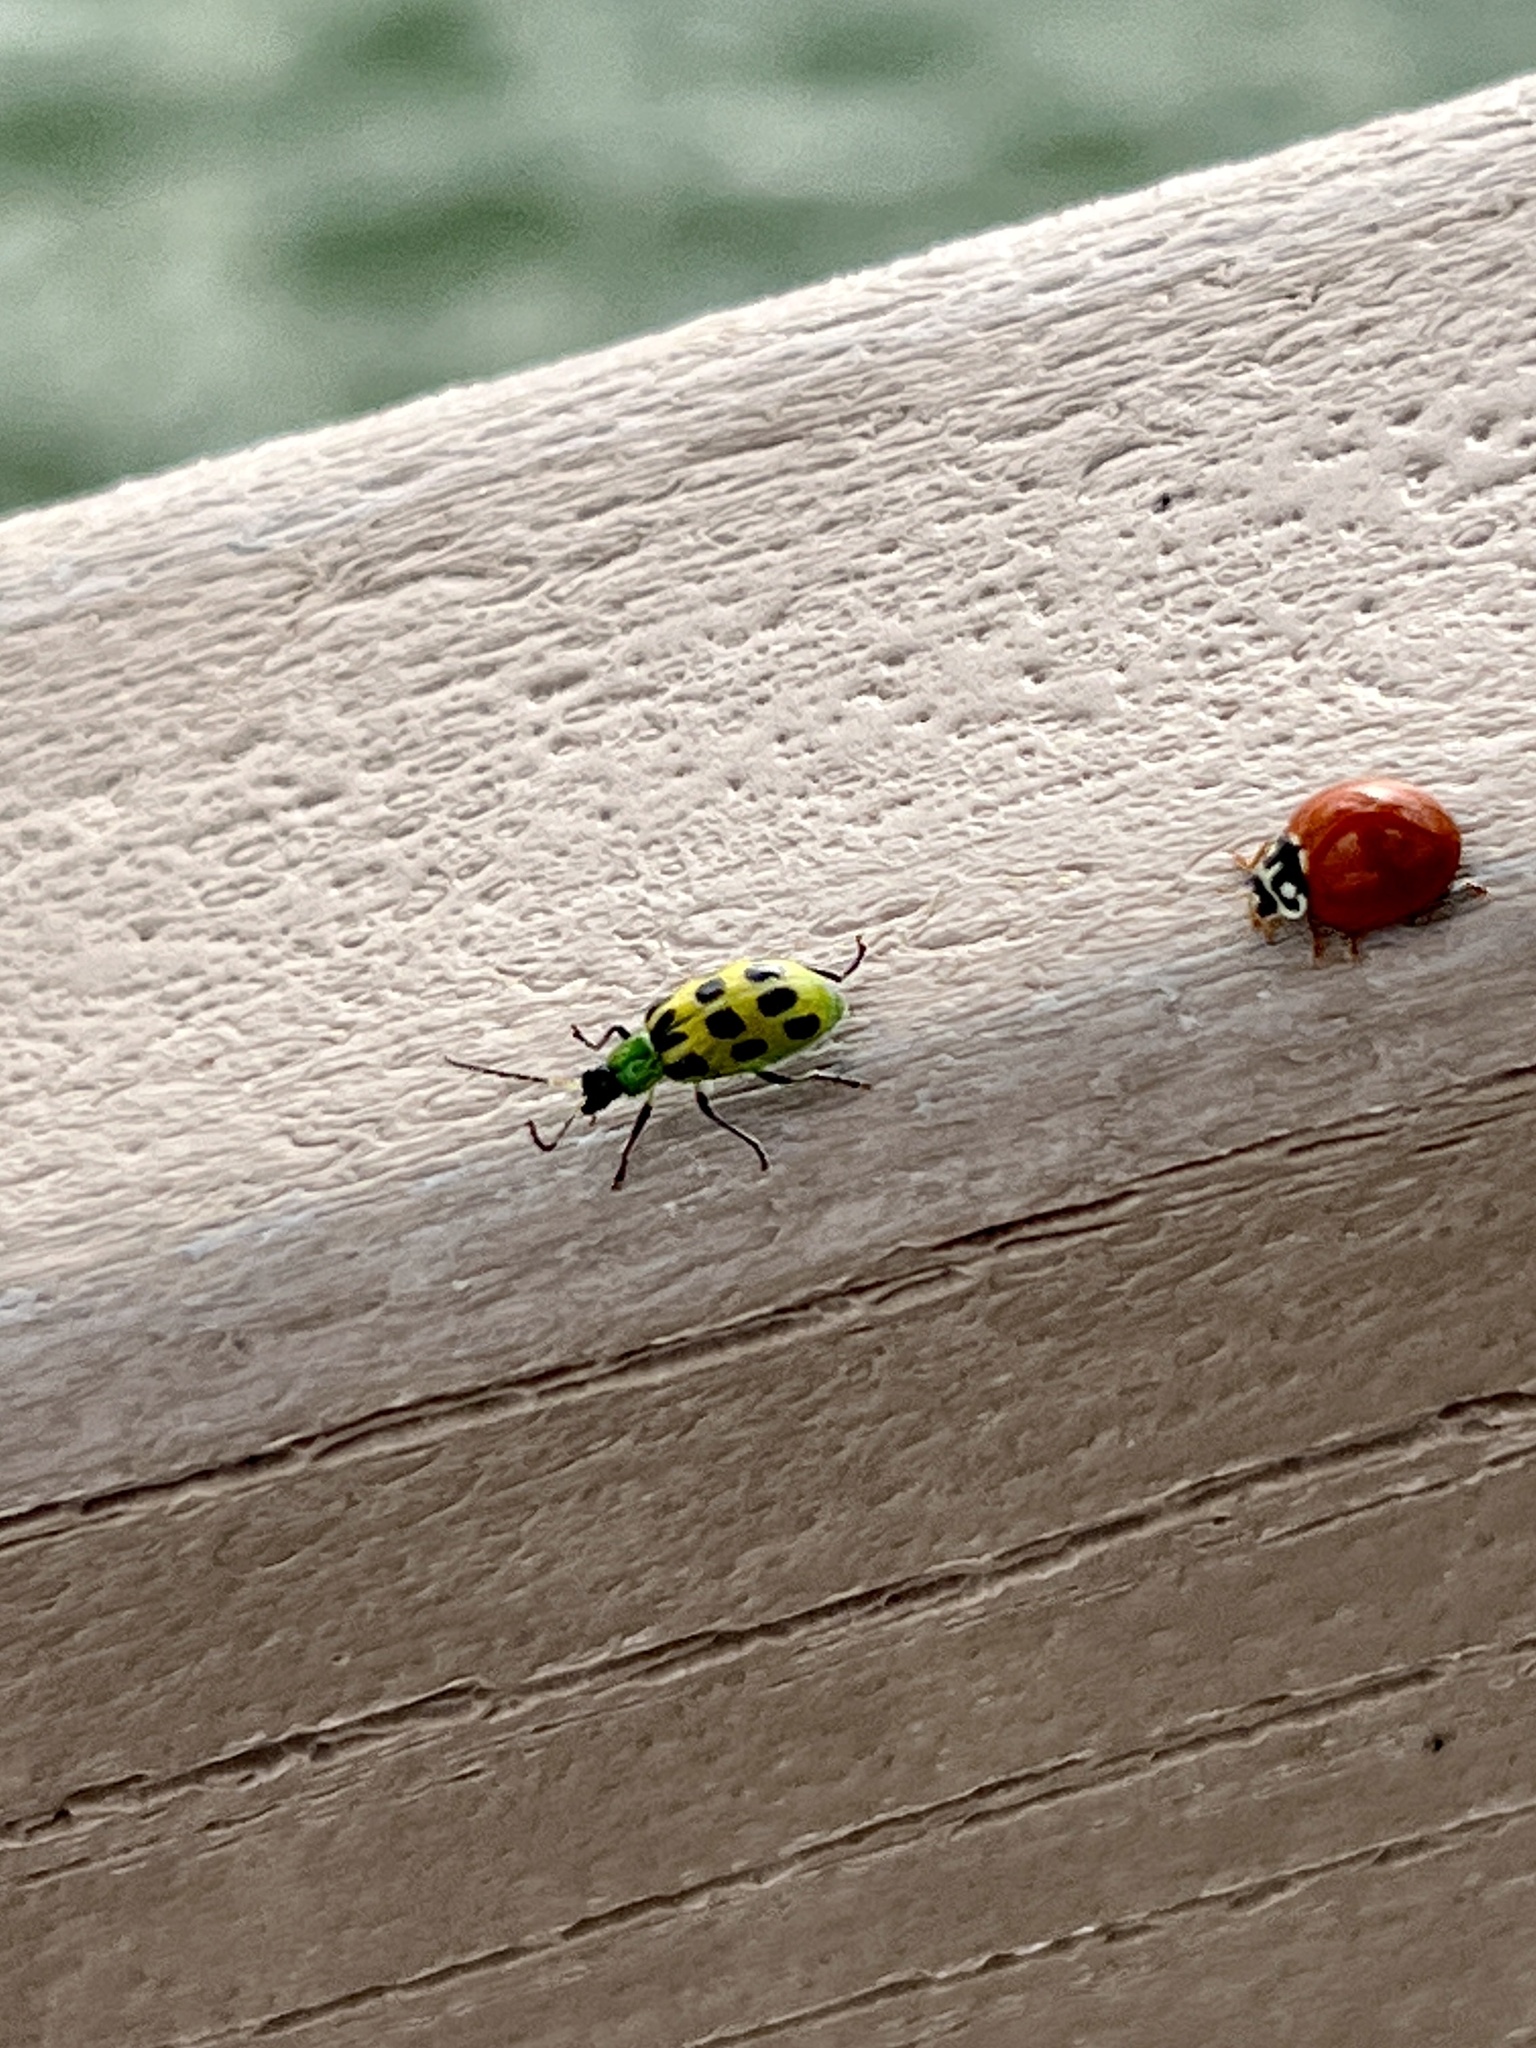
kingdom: Animalia
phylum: Arthropoda
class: Insecta
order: Coleoptera
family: Chrysomelidae
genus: Diabrotica
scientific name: Diabrotica undecimpunctata
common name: Spotted cucumber beetle
